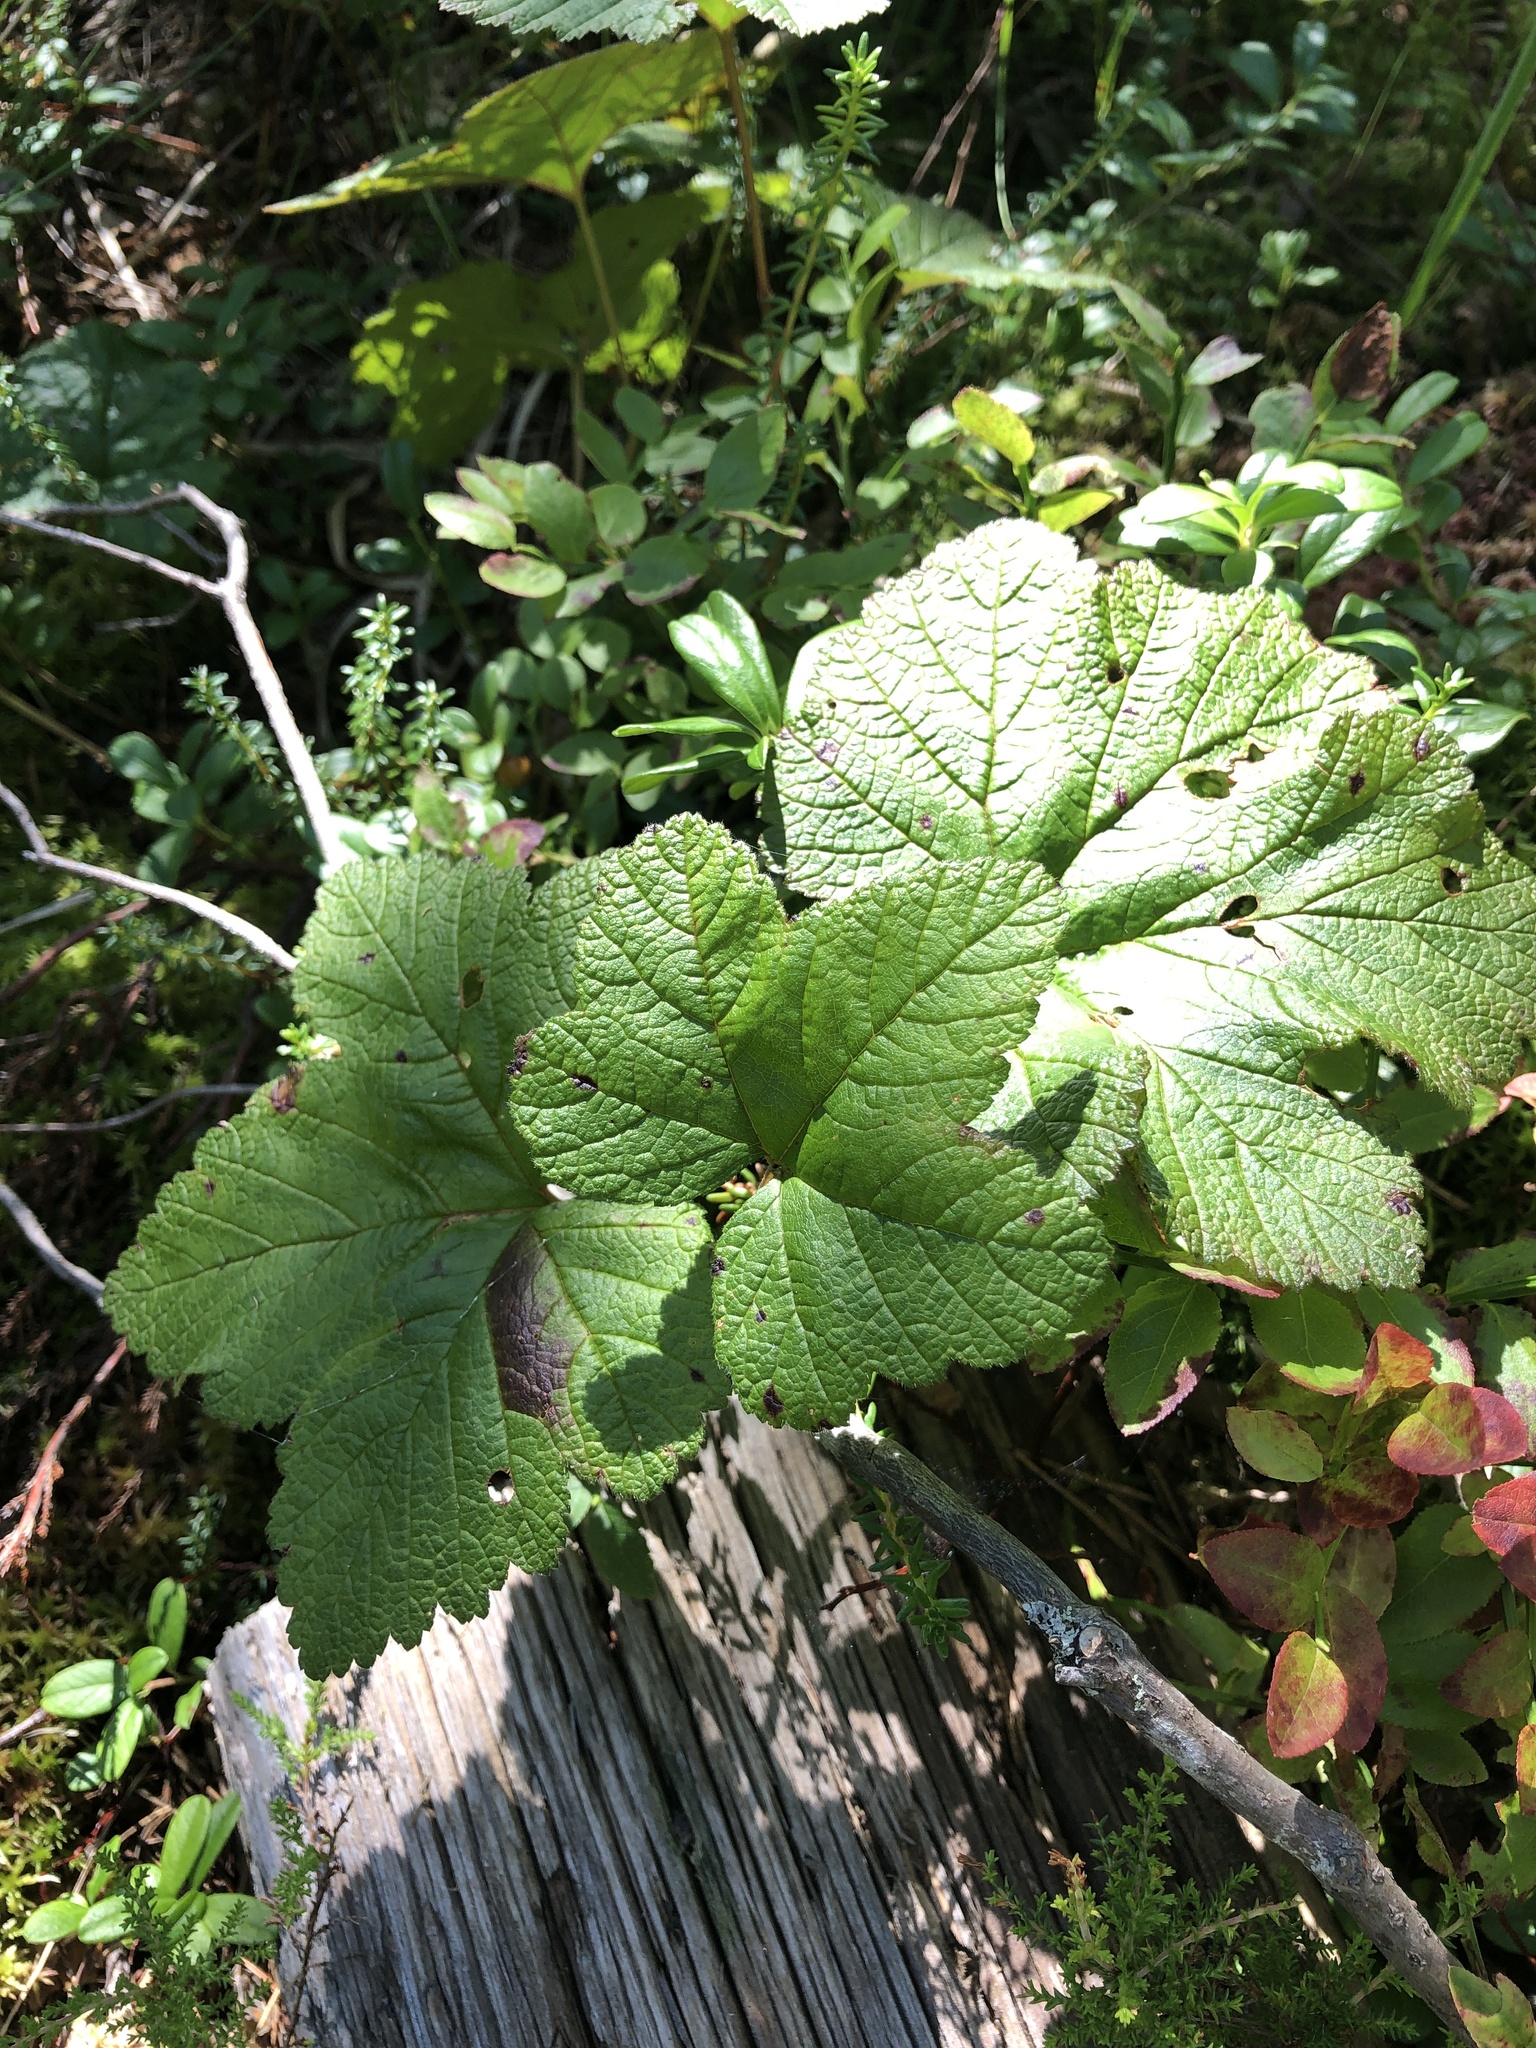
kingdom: Plantae
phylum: Tracheophyta
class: Magnoliopsida
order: Rosales
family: Rosaceae
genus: Rubus
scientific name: Rubus chamaemorus
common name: Cloudberry
